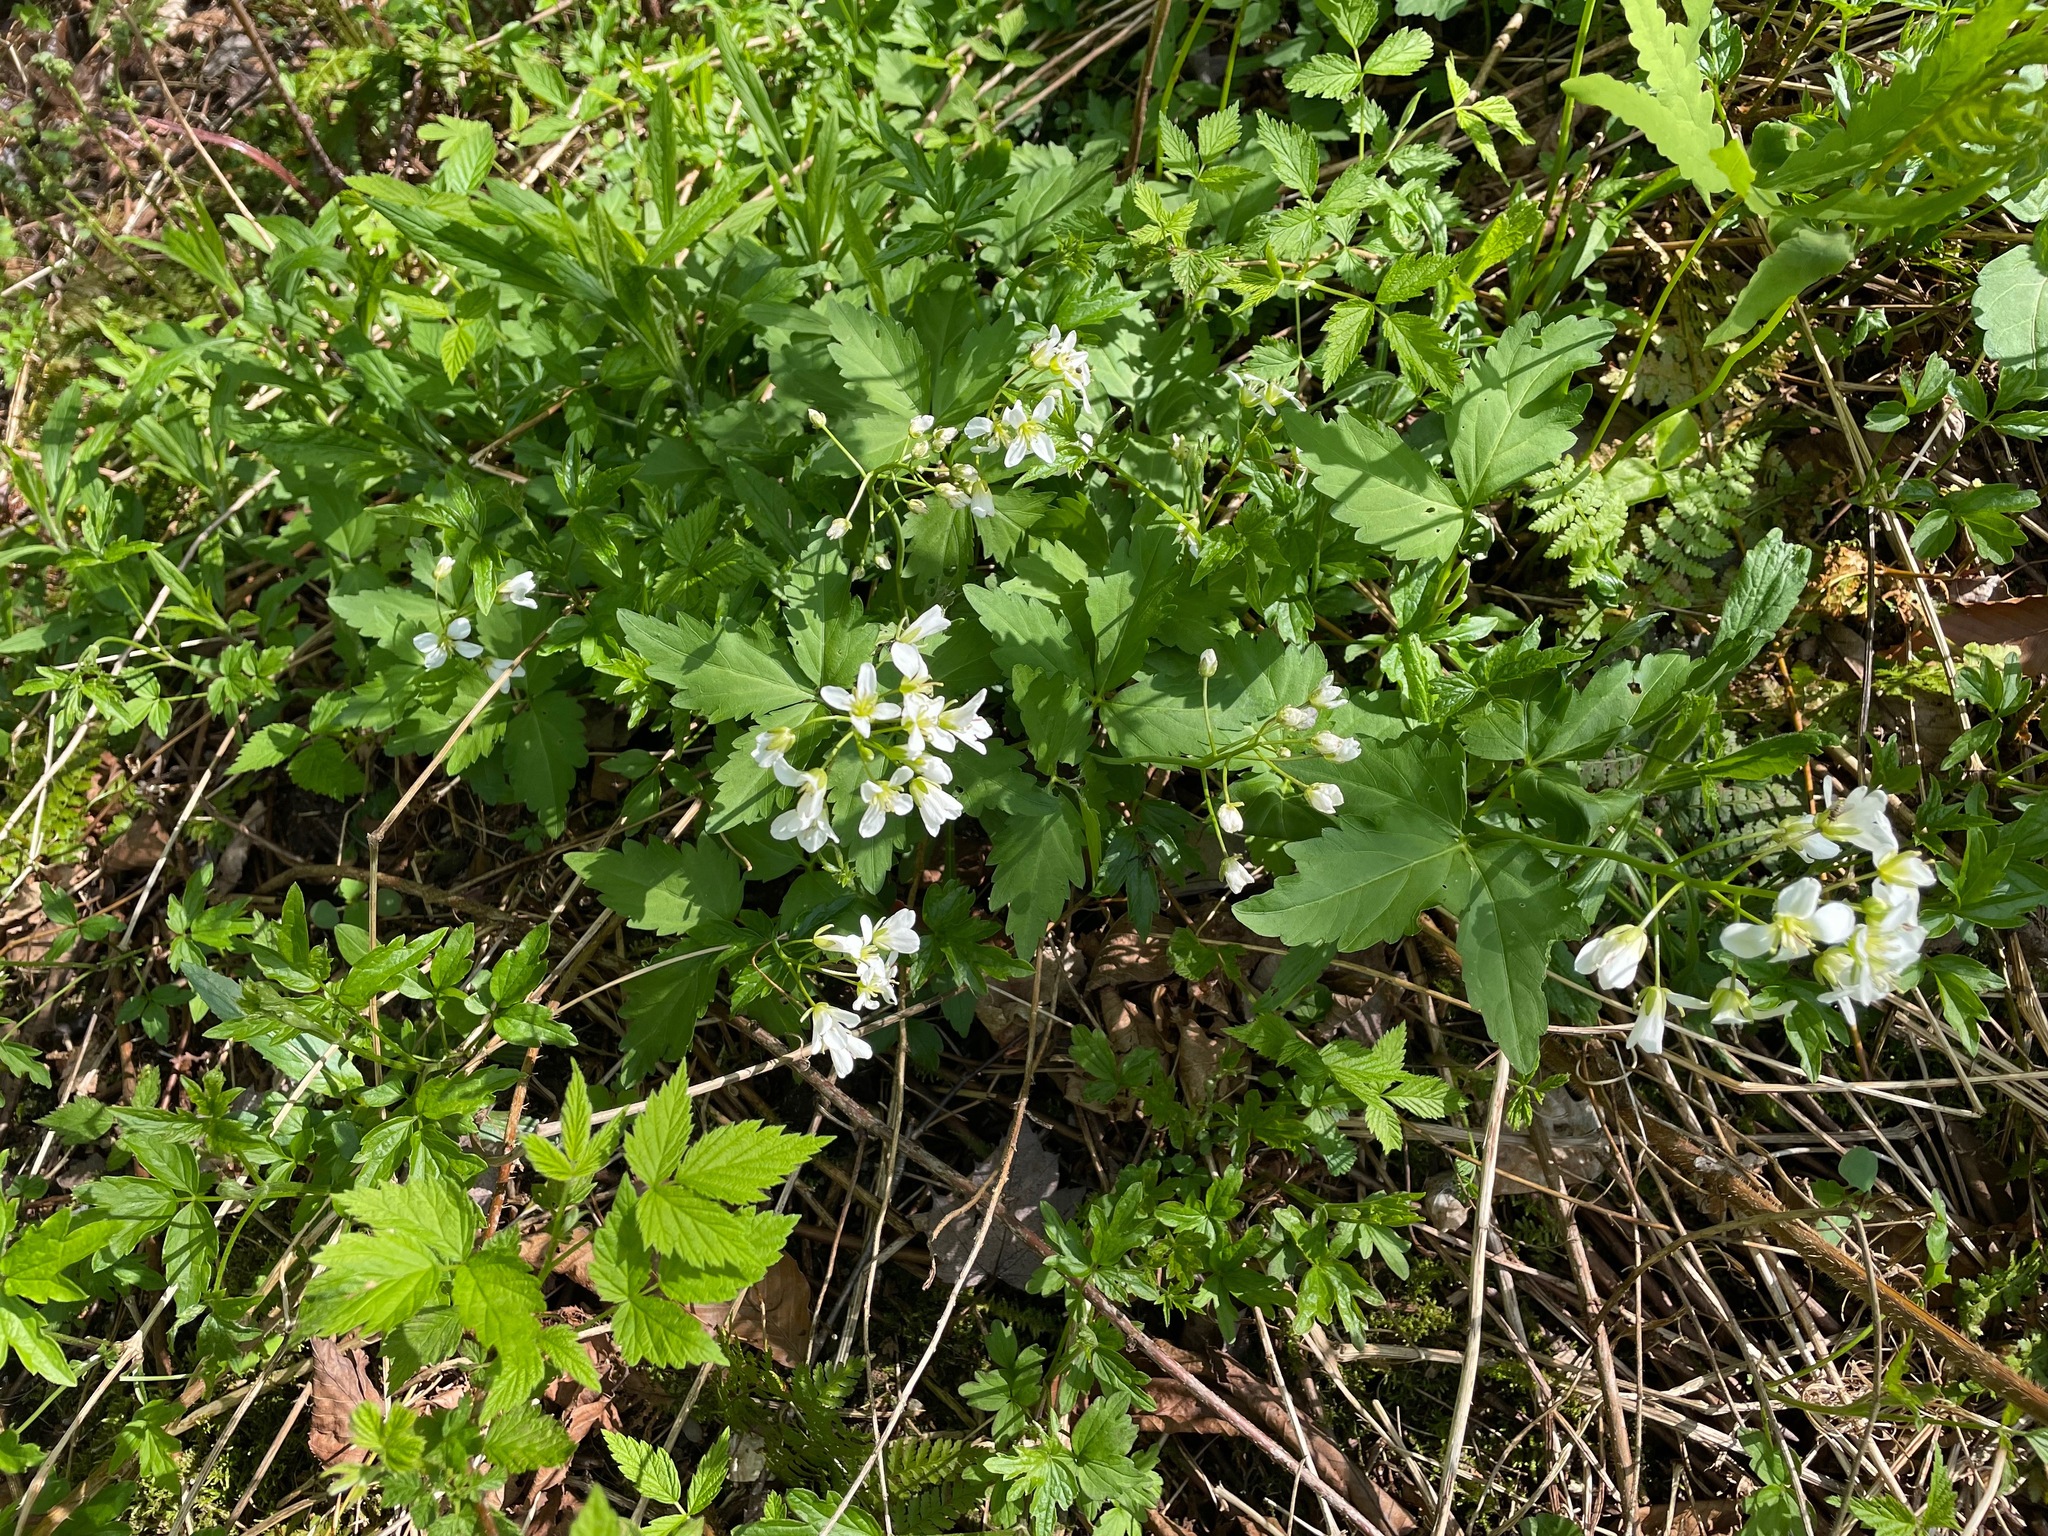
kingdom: Plantae
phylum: Tracheophyta
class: Magnoliopsida
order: Brassicales
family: Brassicaceae
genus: Cardamine
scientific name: Cardamine diphylla
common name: Broad-leaved toothwort
